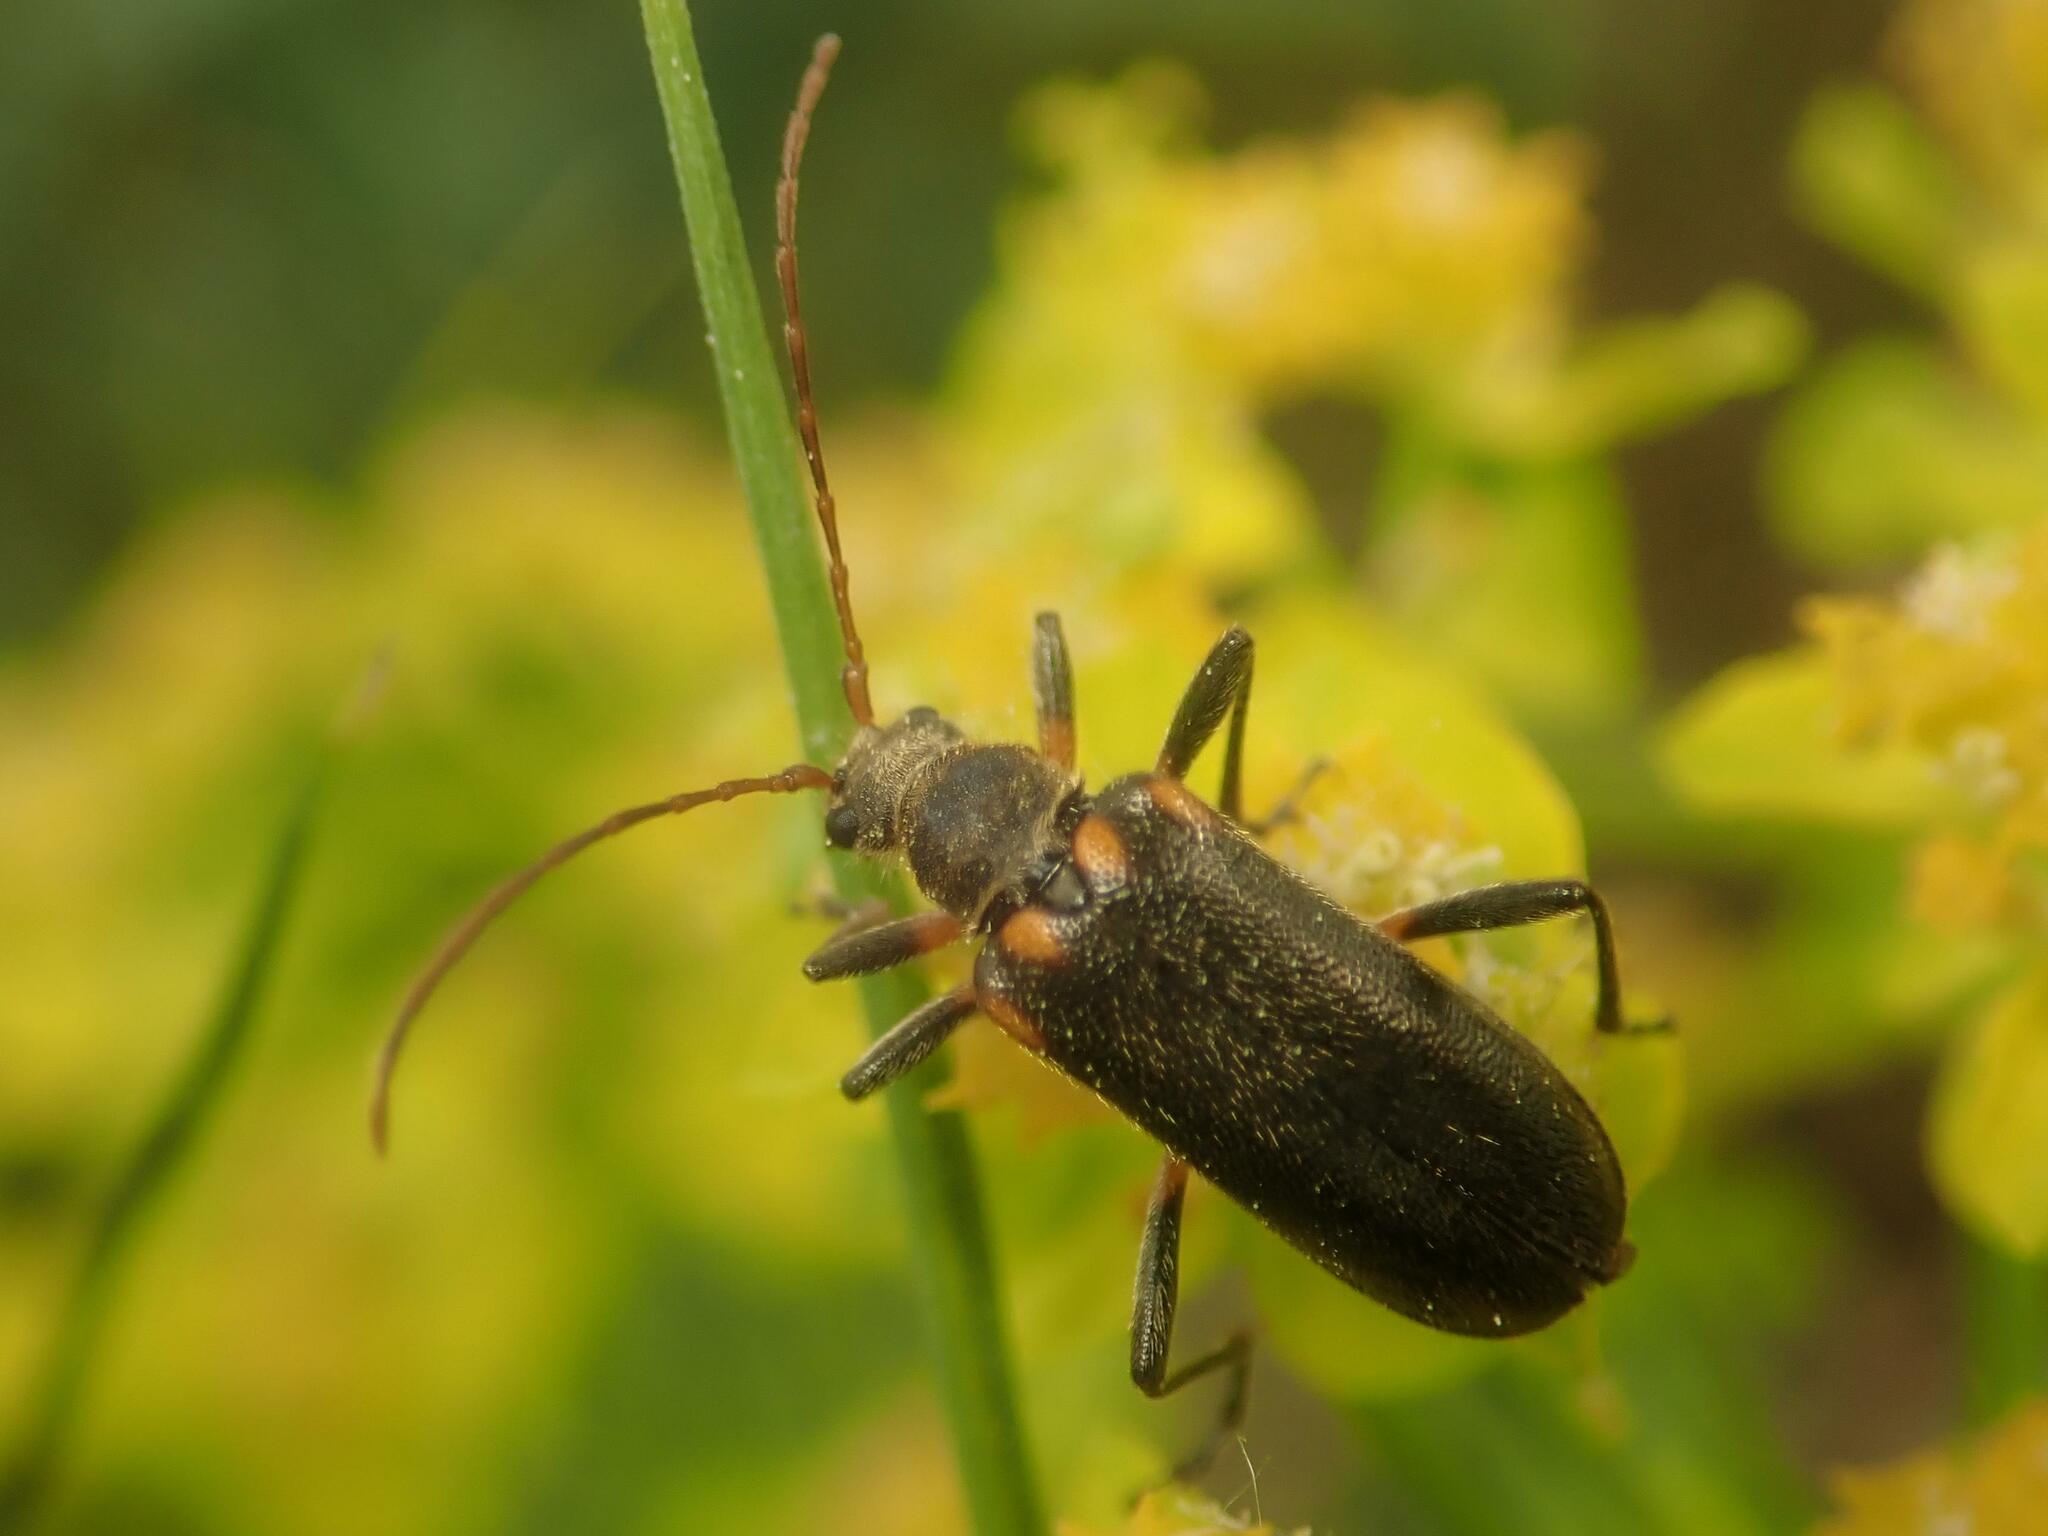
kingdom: Animalia
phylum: Arthropoda
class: Insecta
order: Coleoptera
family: Cerambycidae
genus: Cortodera
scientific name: Cortodera humeralis
